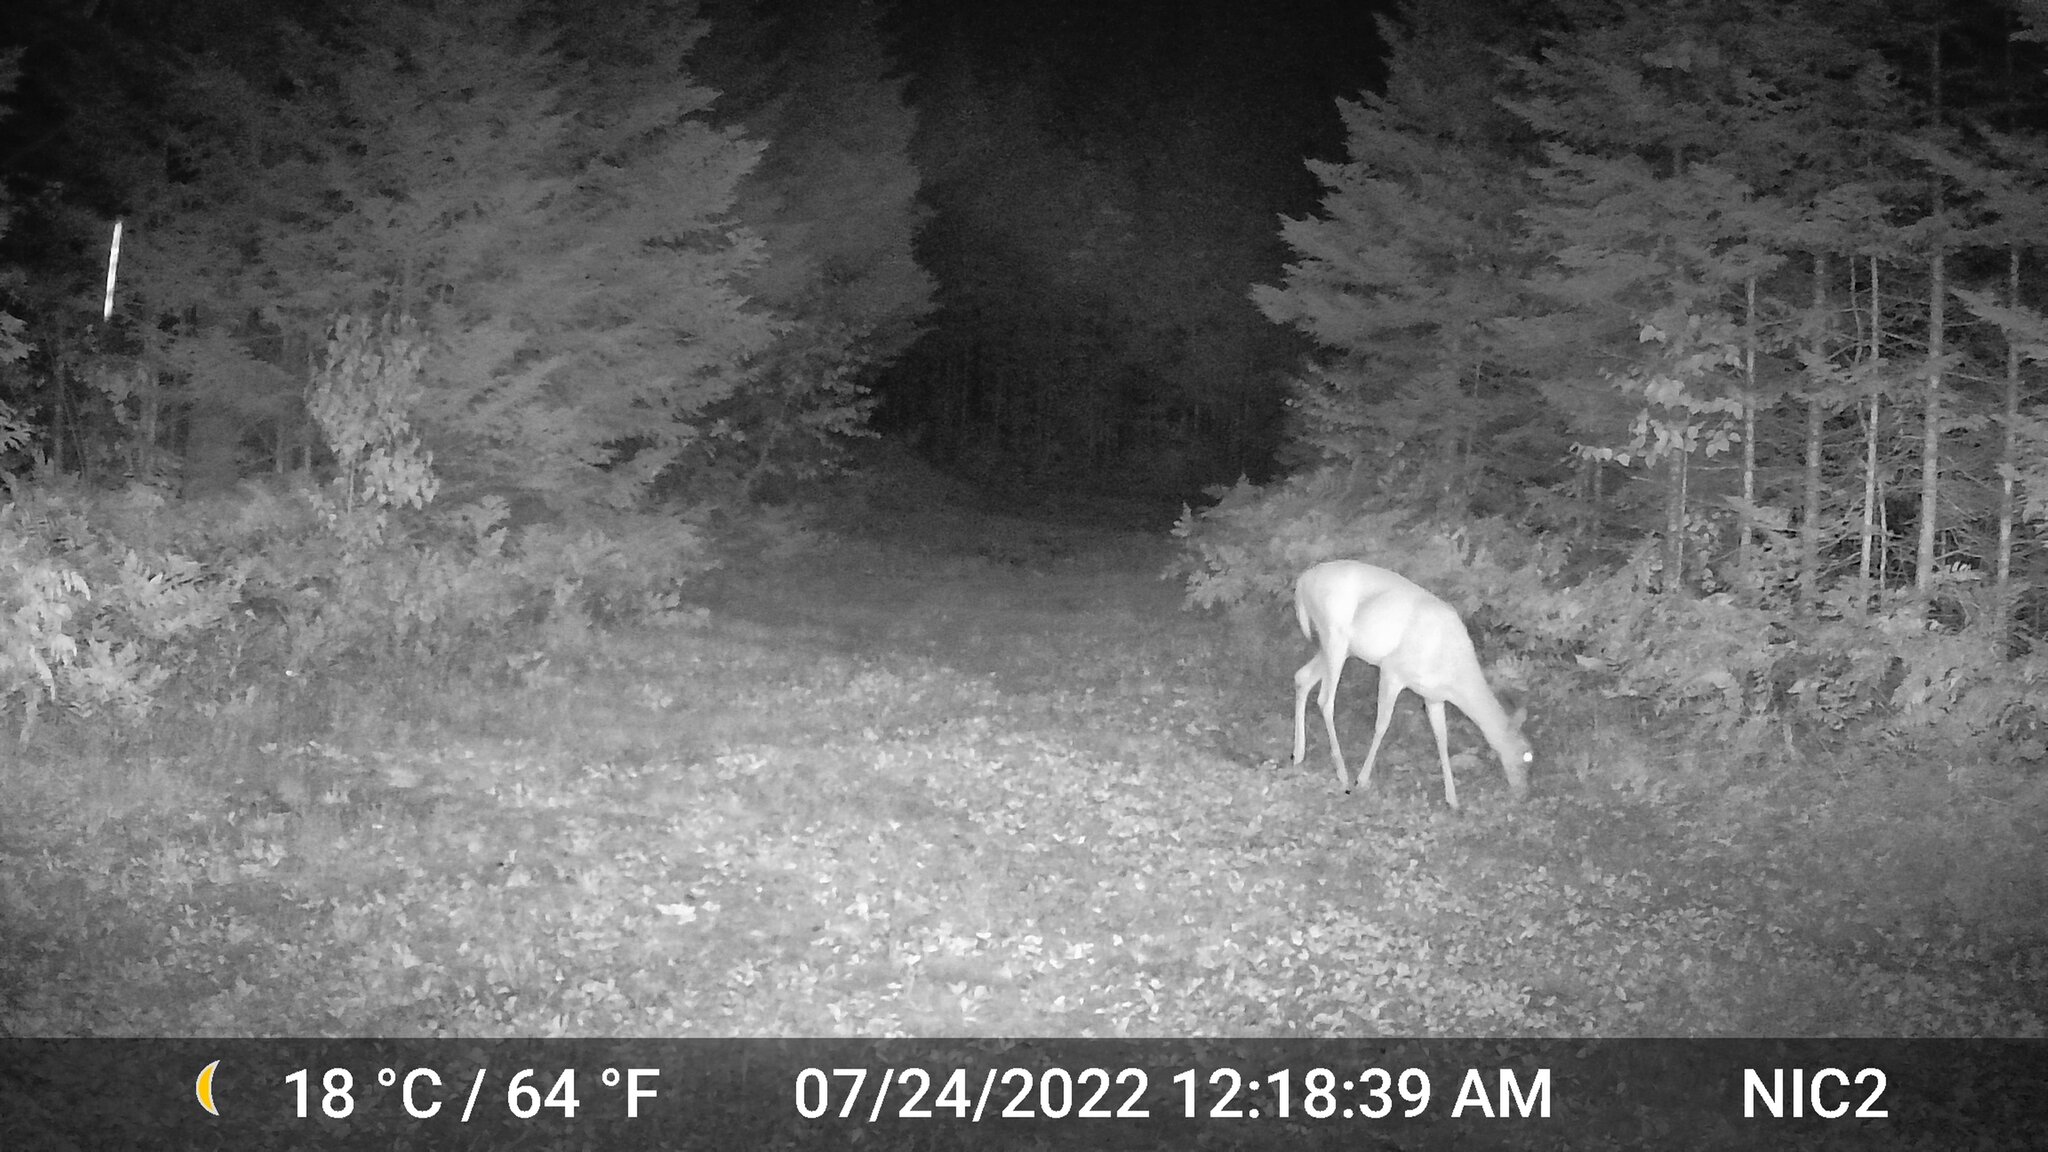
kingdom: Animalia
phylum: Chordata
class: Mammalia
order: Artiodactyla
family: Cervidae
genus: Odocoileus
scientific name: Odocoileus virginianus
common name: White-tailed deer
